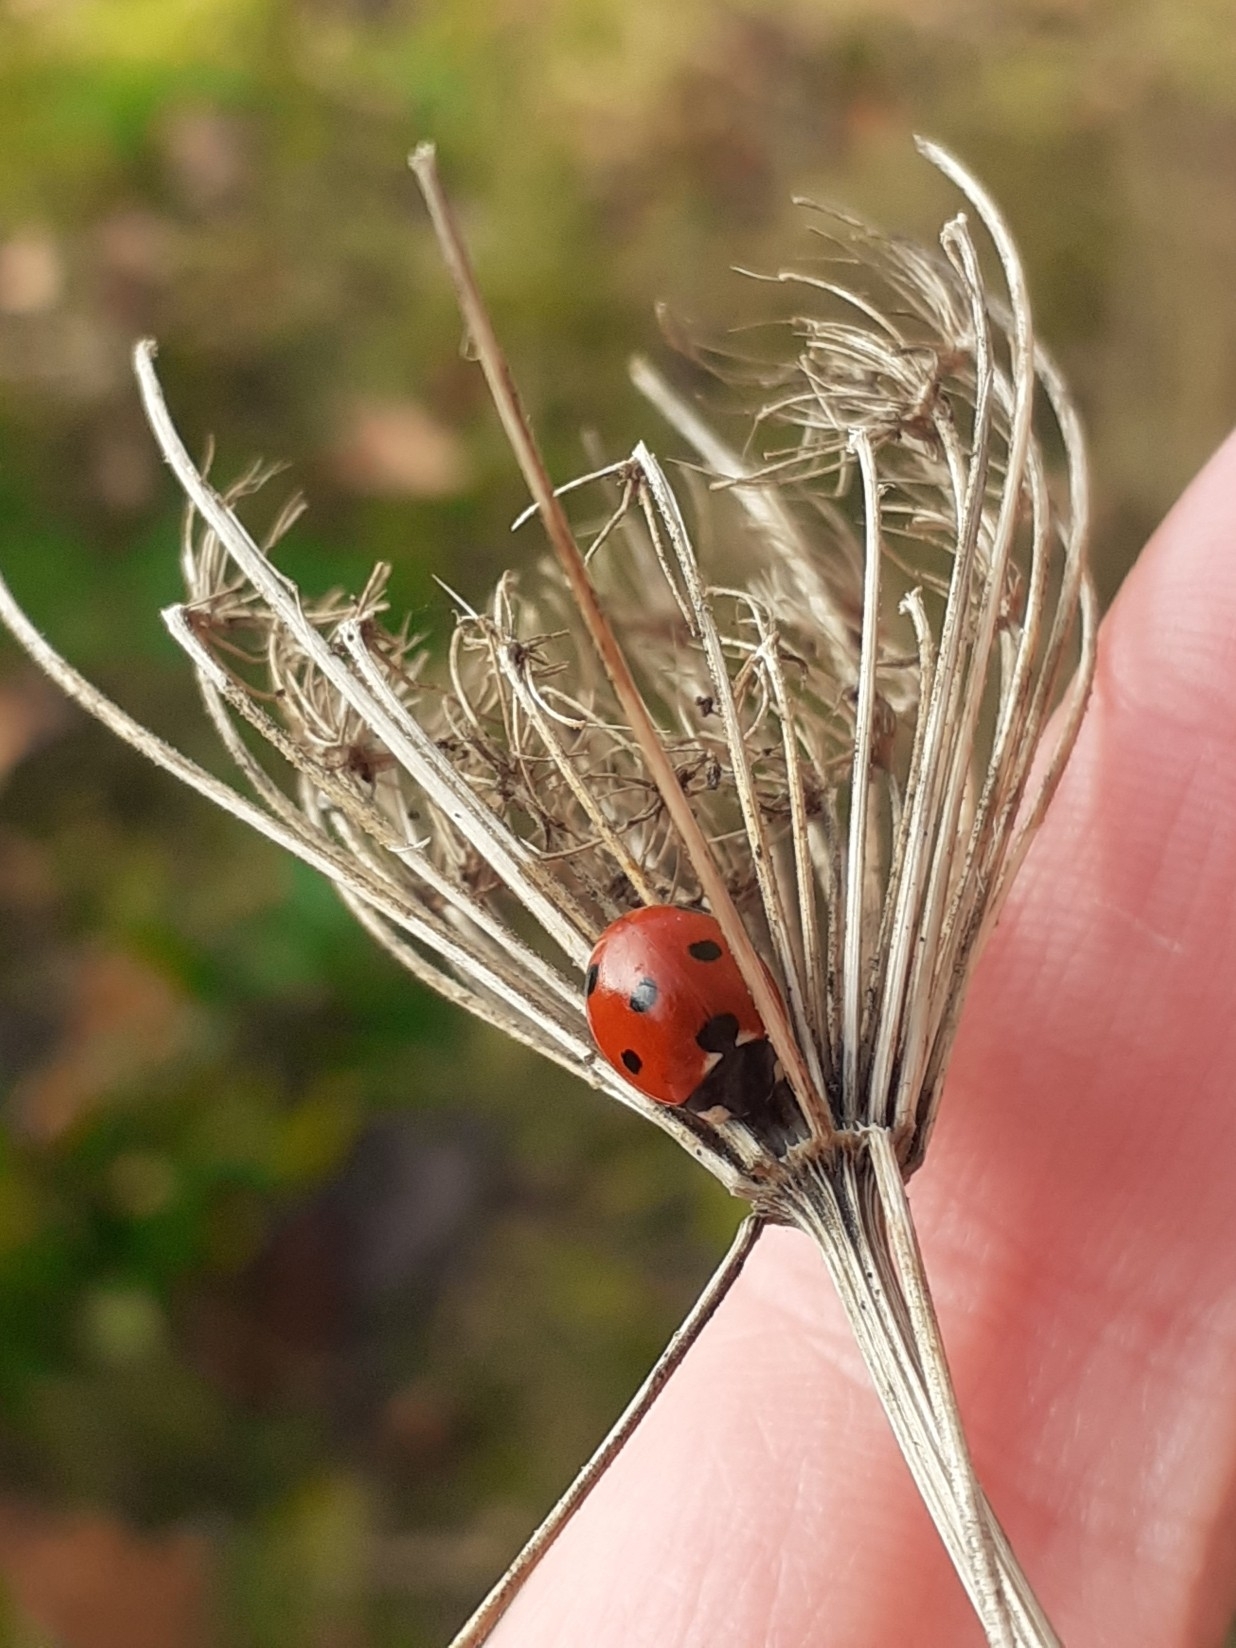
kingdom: Animalia
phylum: Arthropoda
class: Insecta
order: Coleoptera
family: Coccinellidae
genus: Coccinella
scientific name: Coccinella septempunctata
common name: Sevenspotted lady beetle
